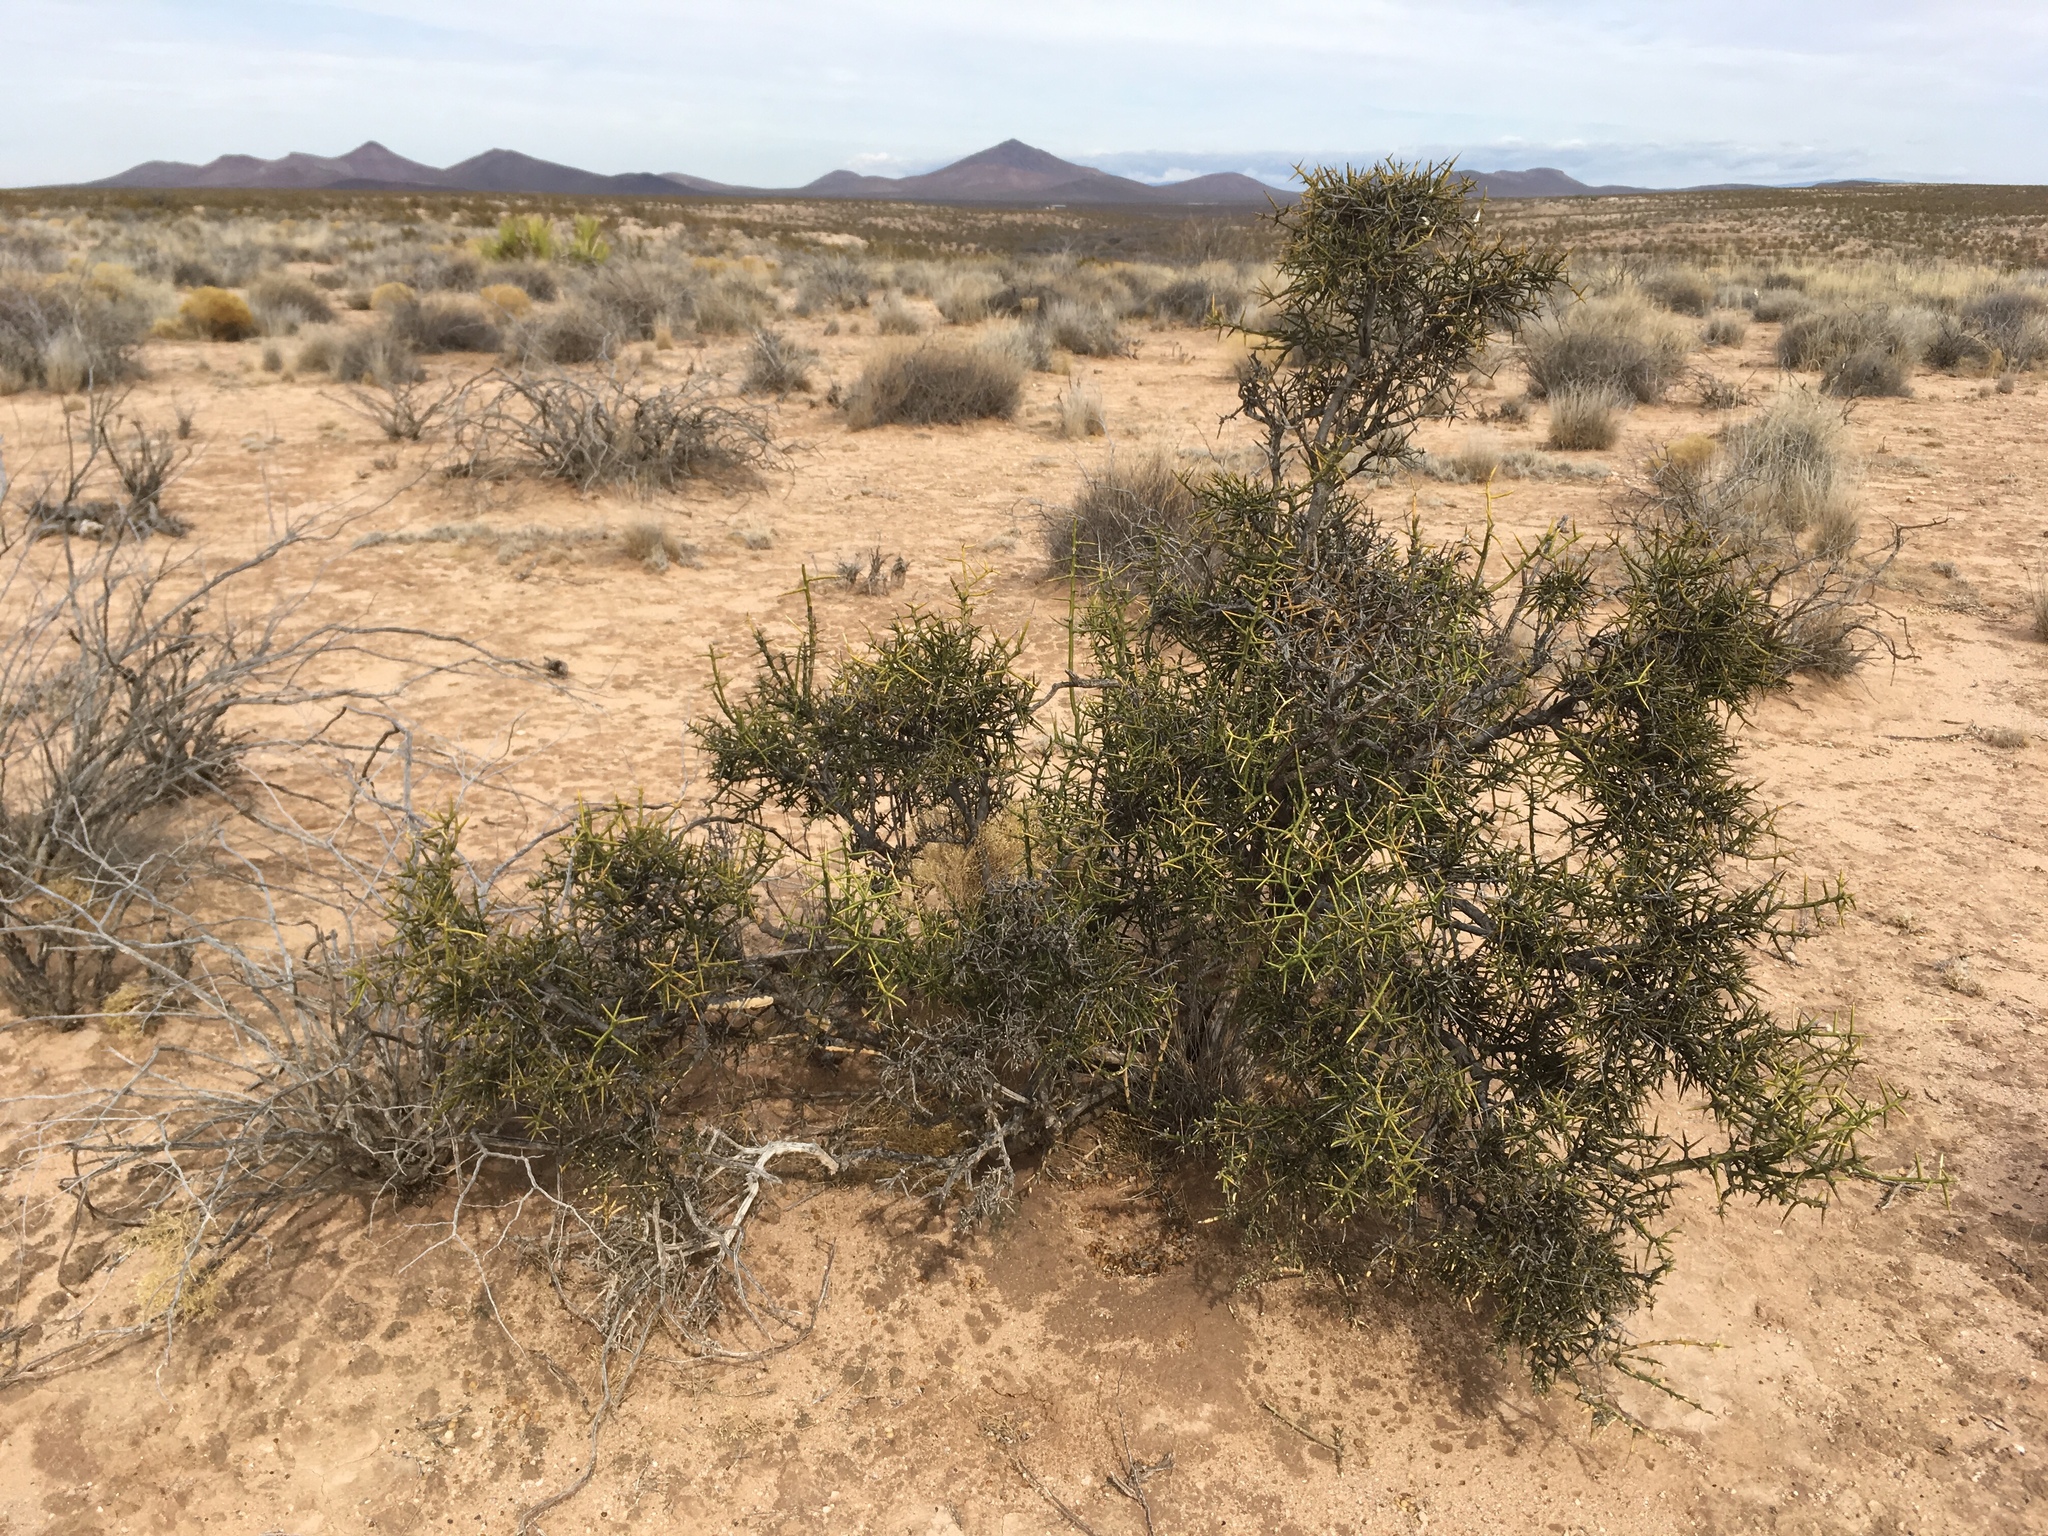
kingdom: Plantae
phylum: Tracheophyta
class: Magnoliopsida
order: Brassicales
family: Koeberliniaceae
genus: Koeberlinia
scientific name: Koeberlinia spinosa
